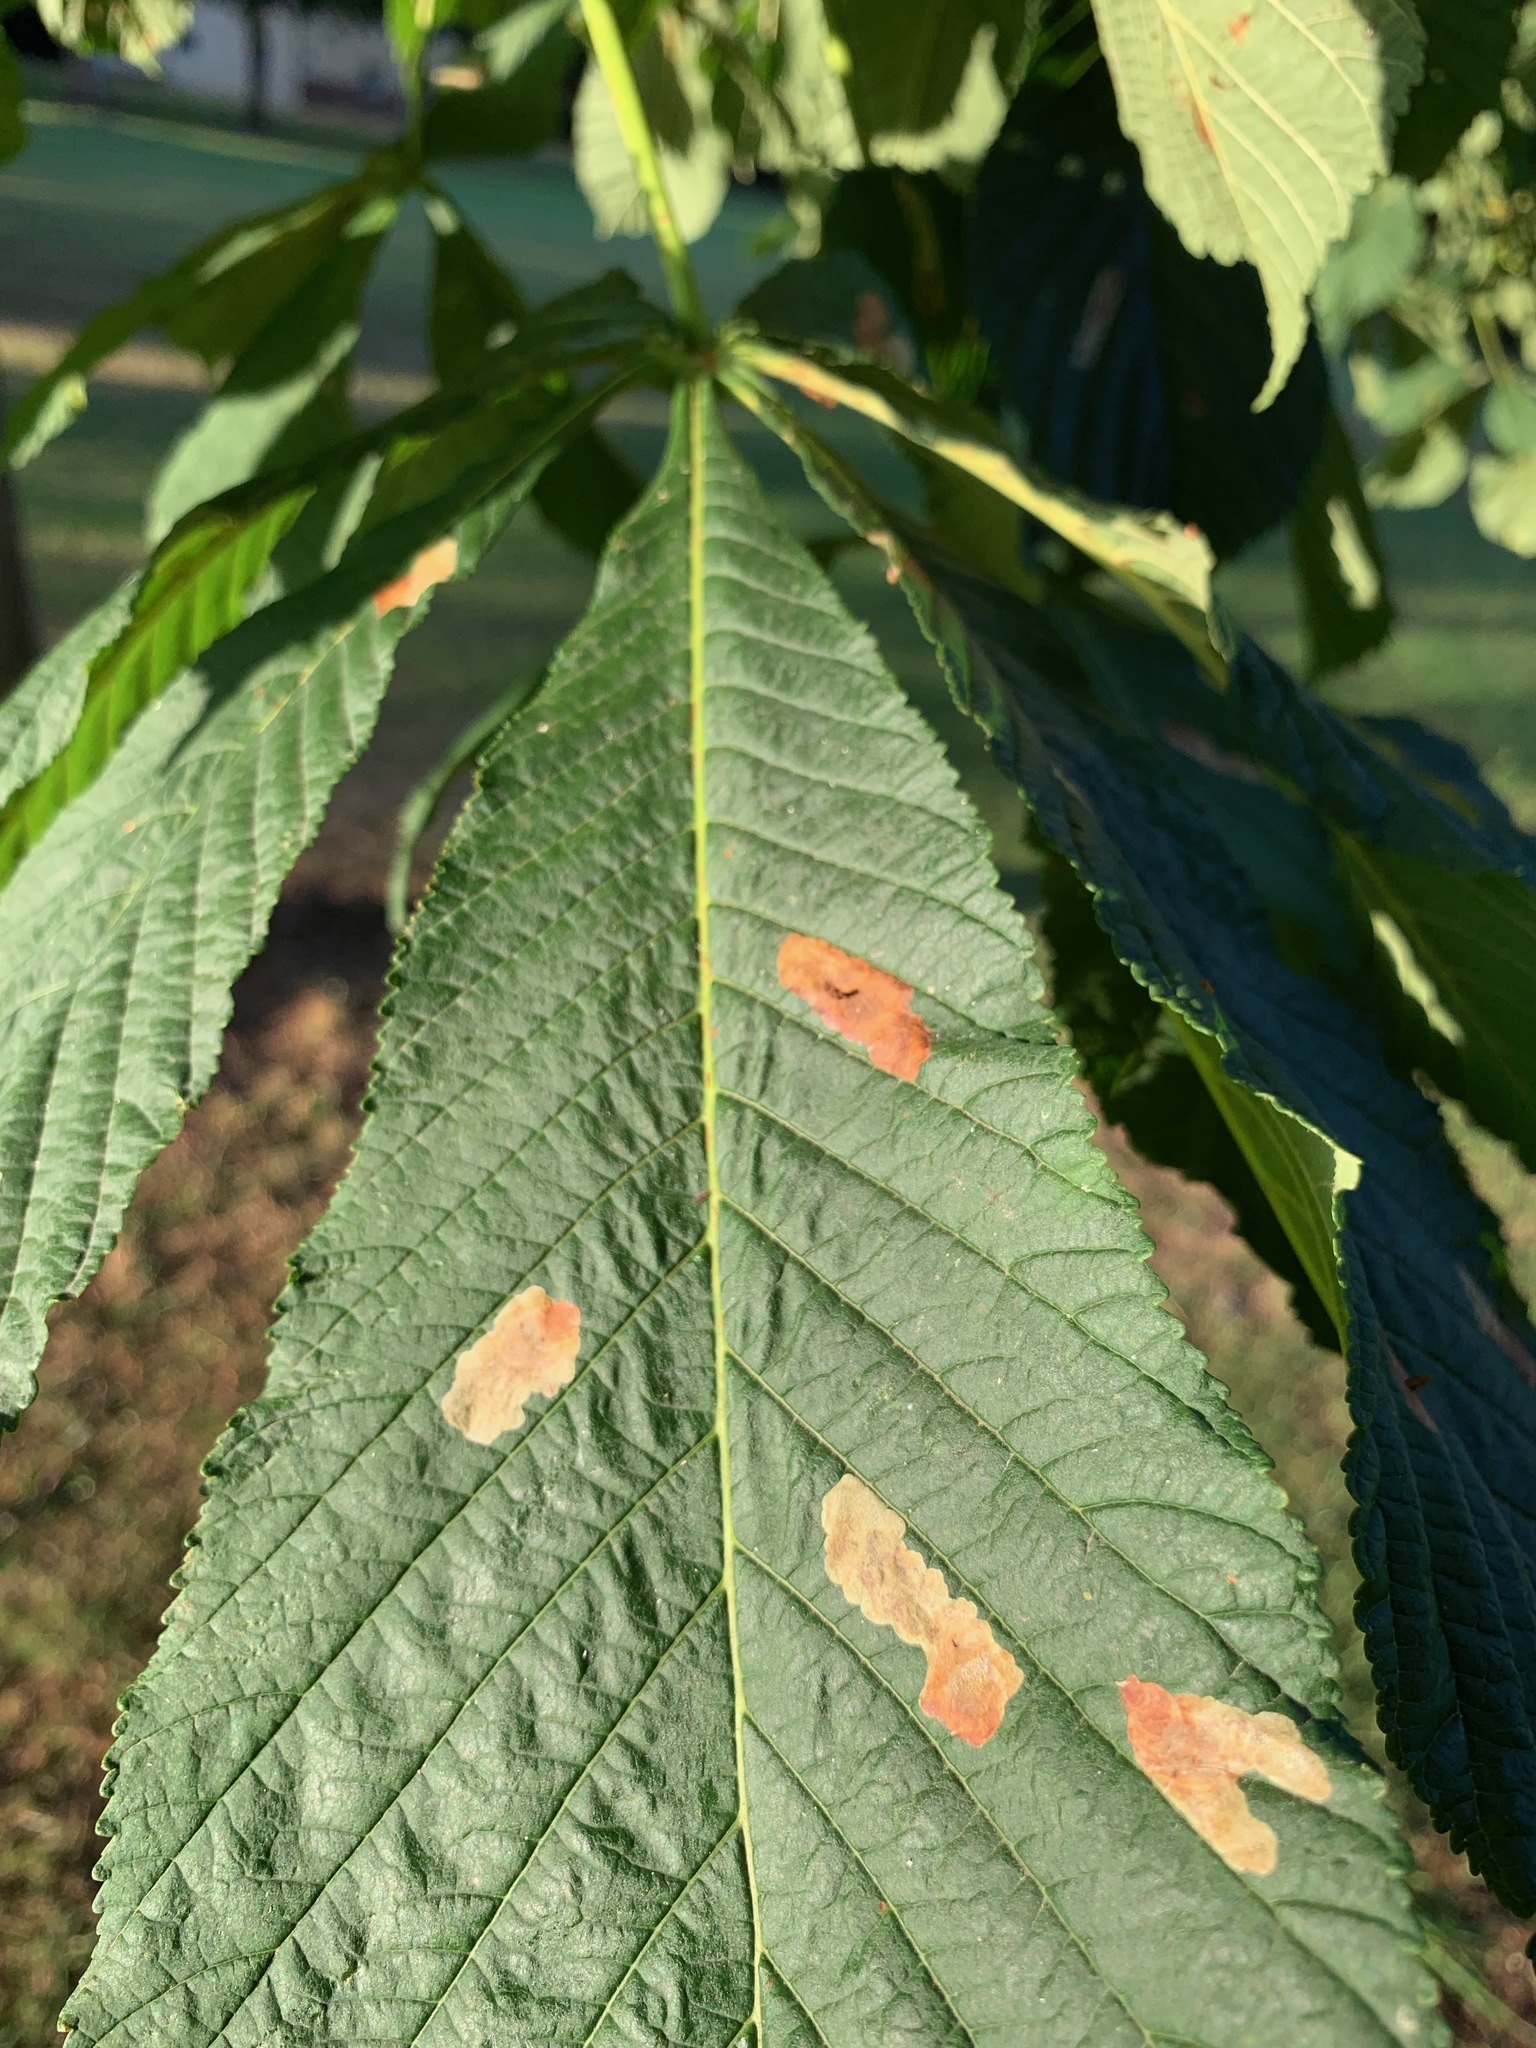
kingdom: Animalia
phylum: Arthropoda
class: Insecta
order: Lepidoptera
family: Gracillariidae
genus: Cameraria
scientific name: Cameraria ohridella
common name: Horse-chestnut leaf-miner
